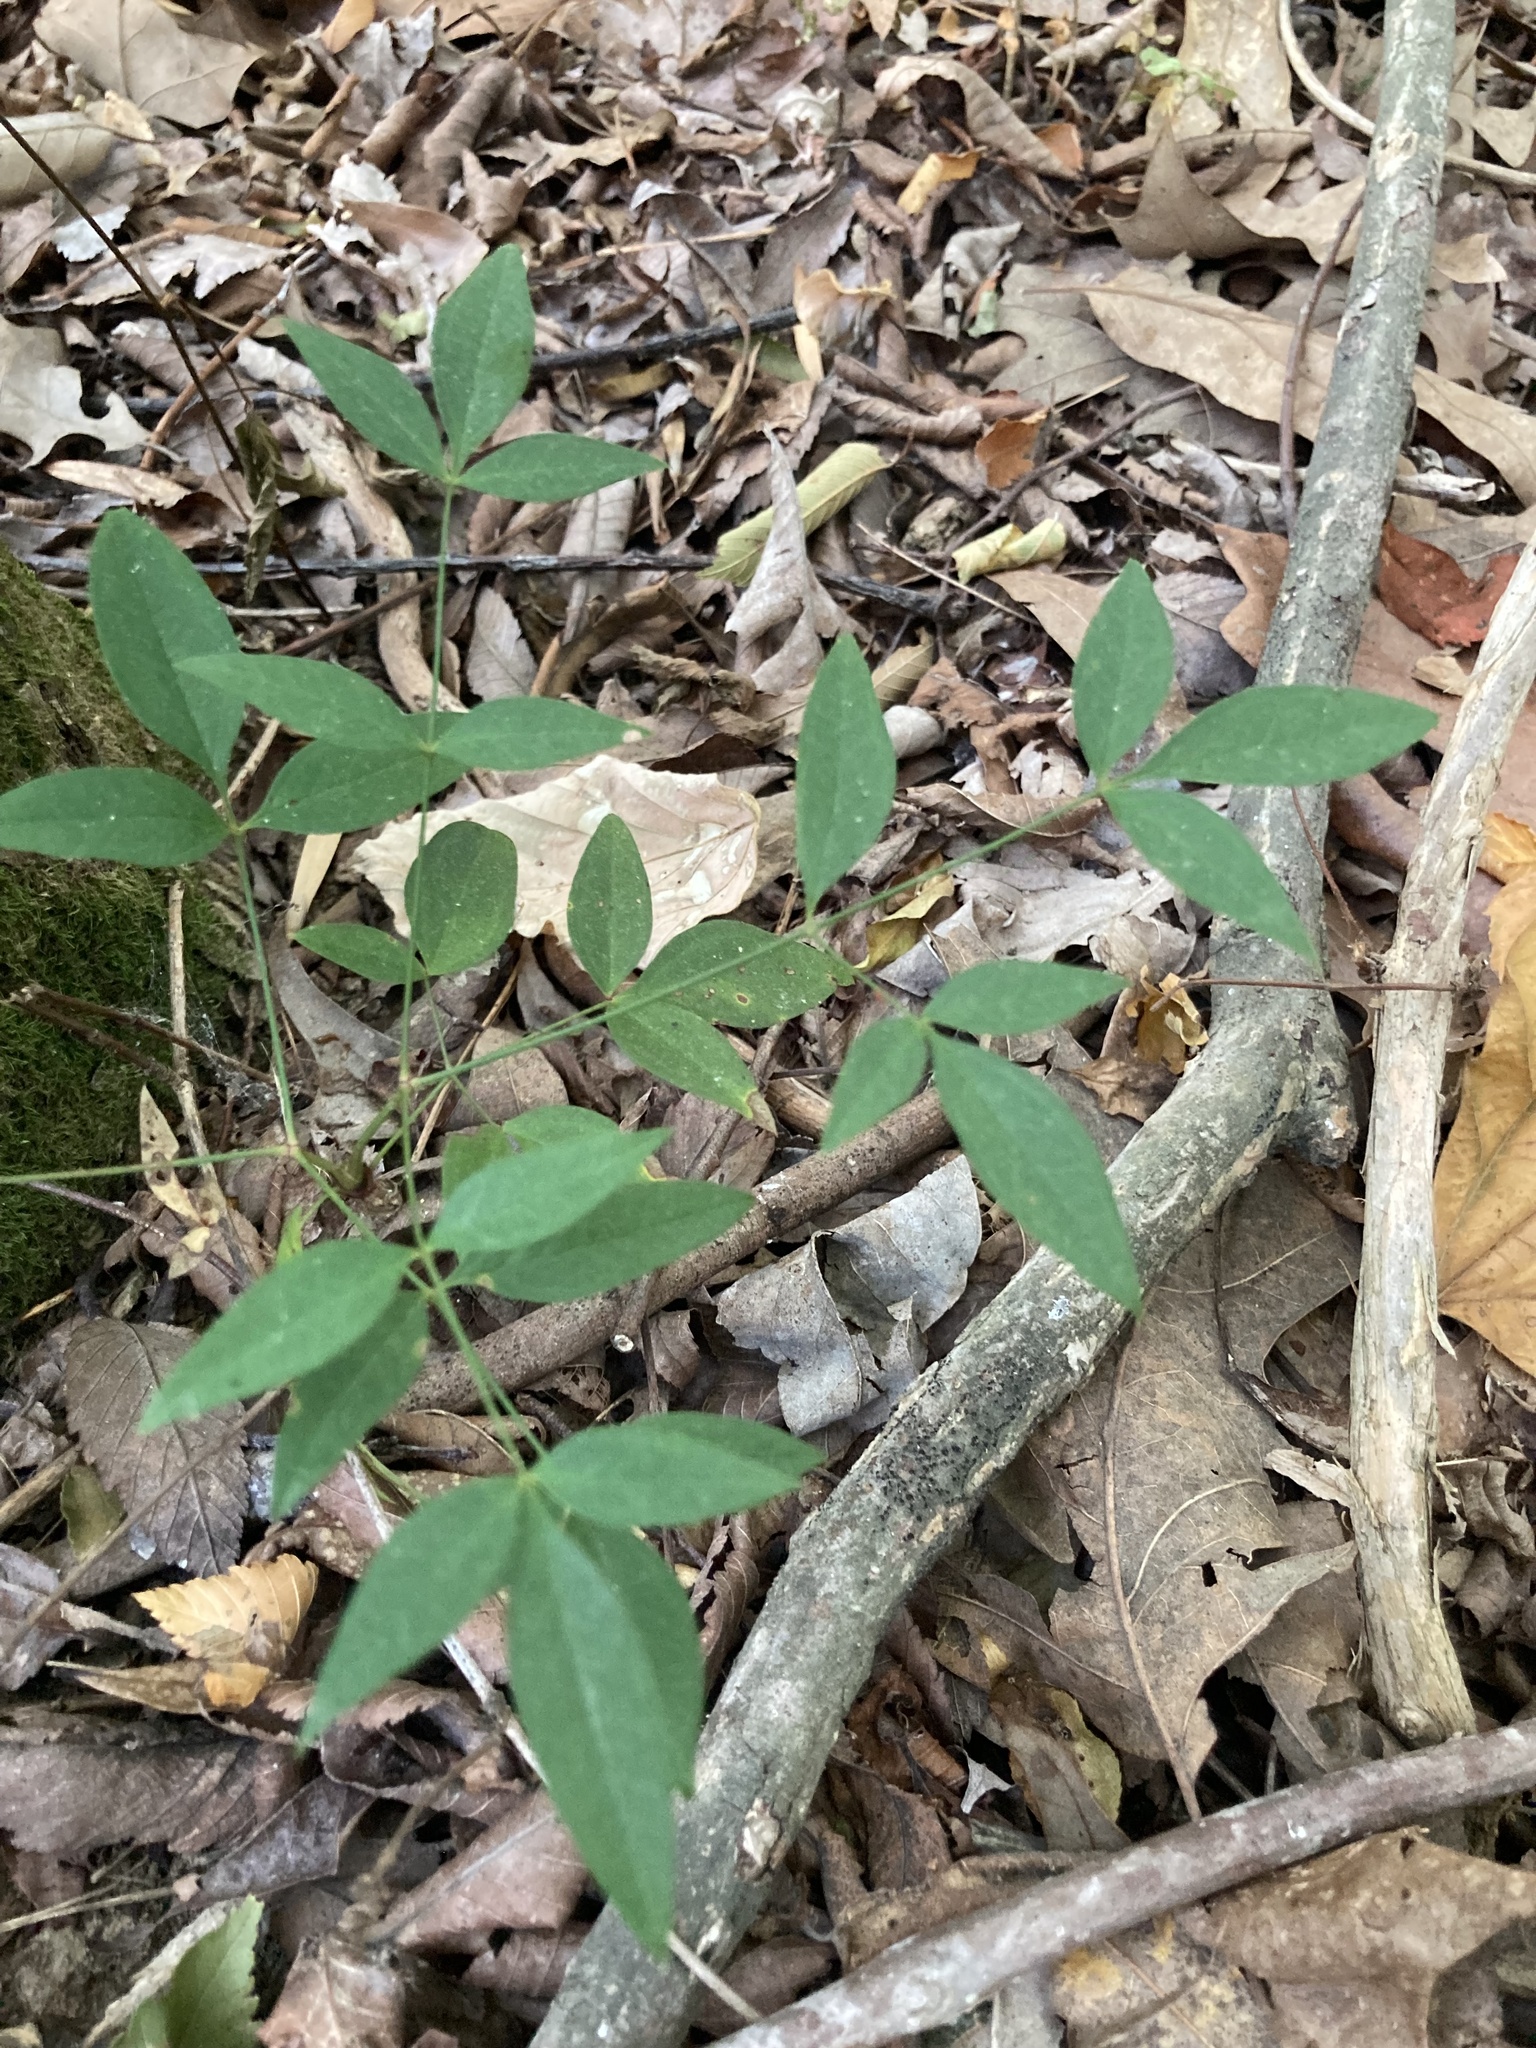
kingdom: Plantae
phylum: Tracheophyta
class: Magnoliopsida
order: Ranunculales
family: Berberidaceae
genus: Nandina
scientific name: Nandina domestica
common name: Sacred bamboo
